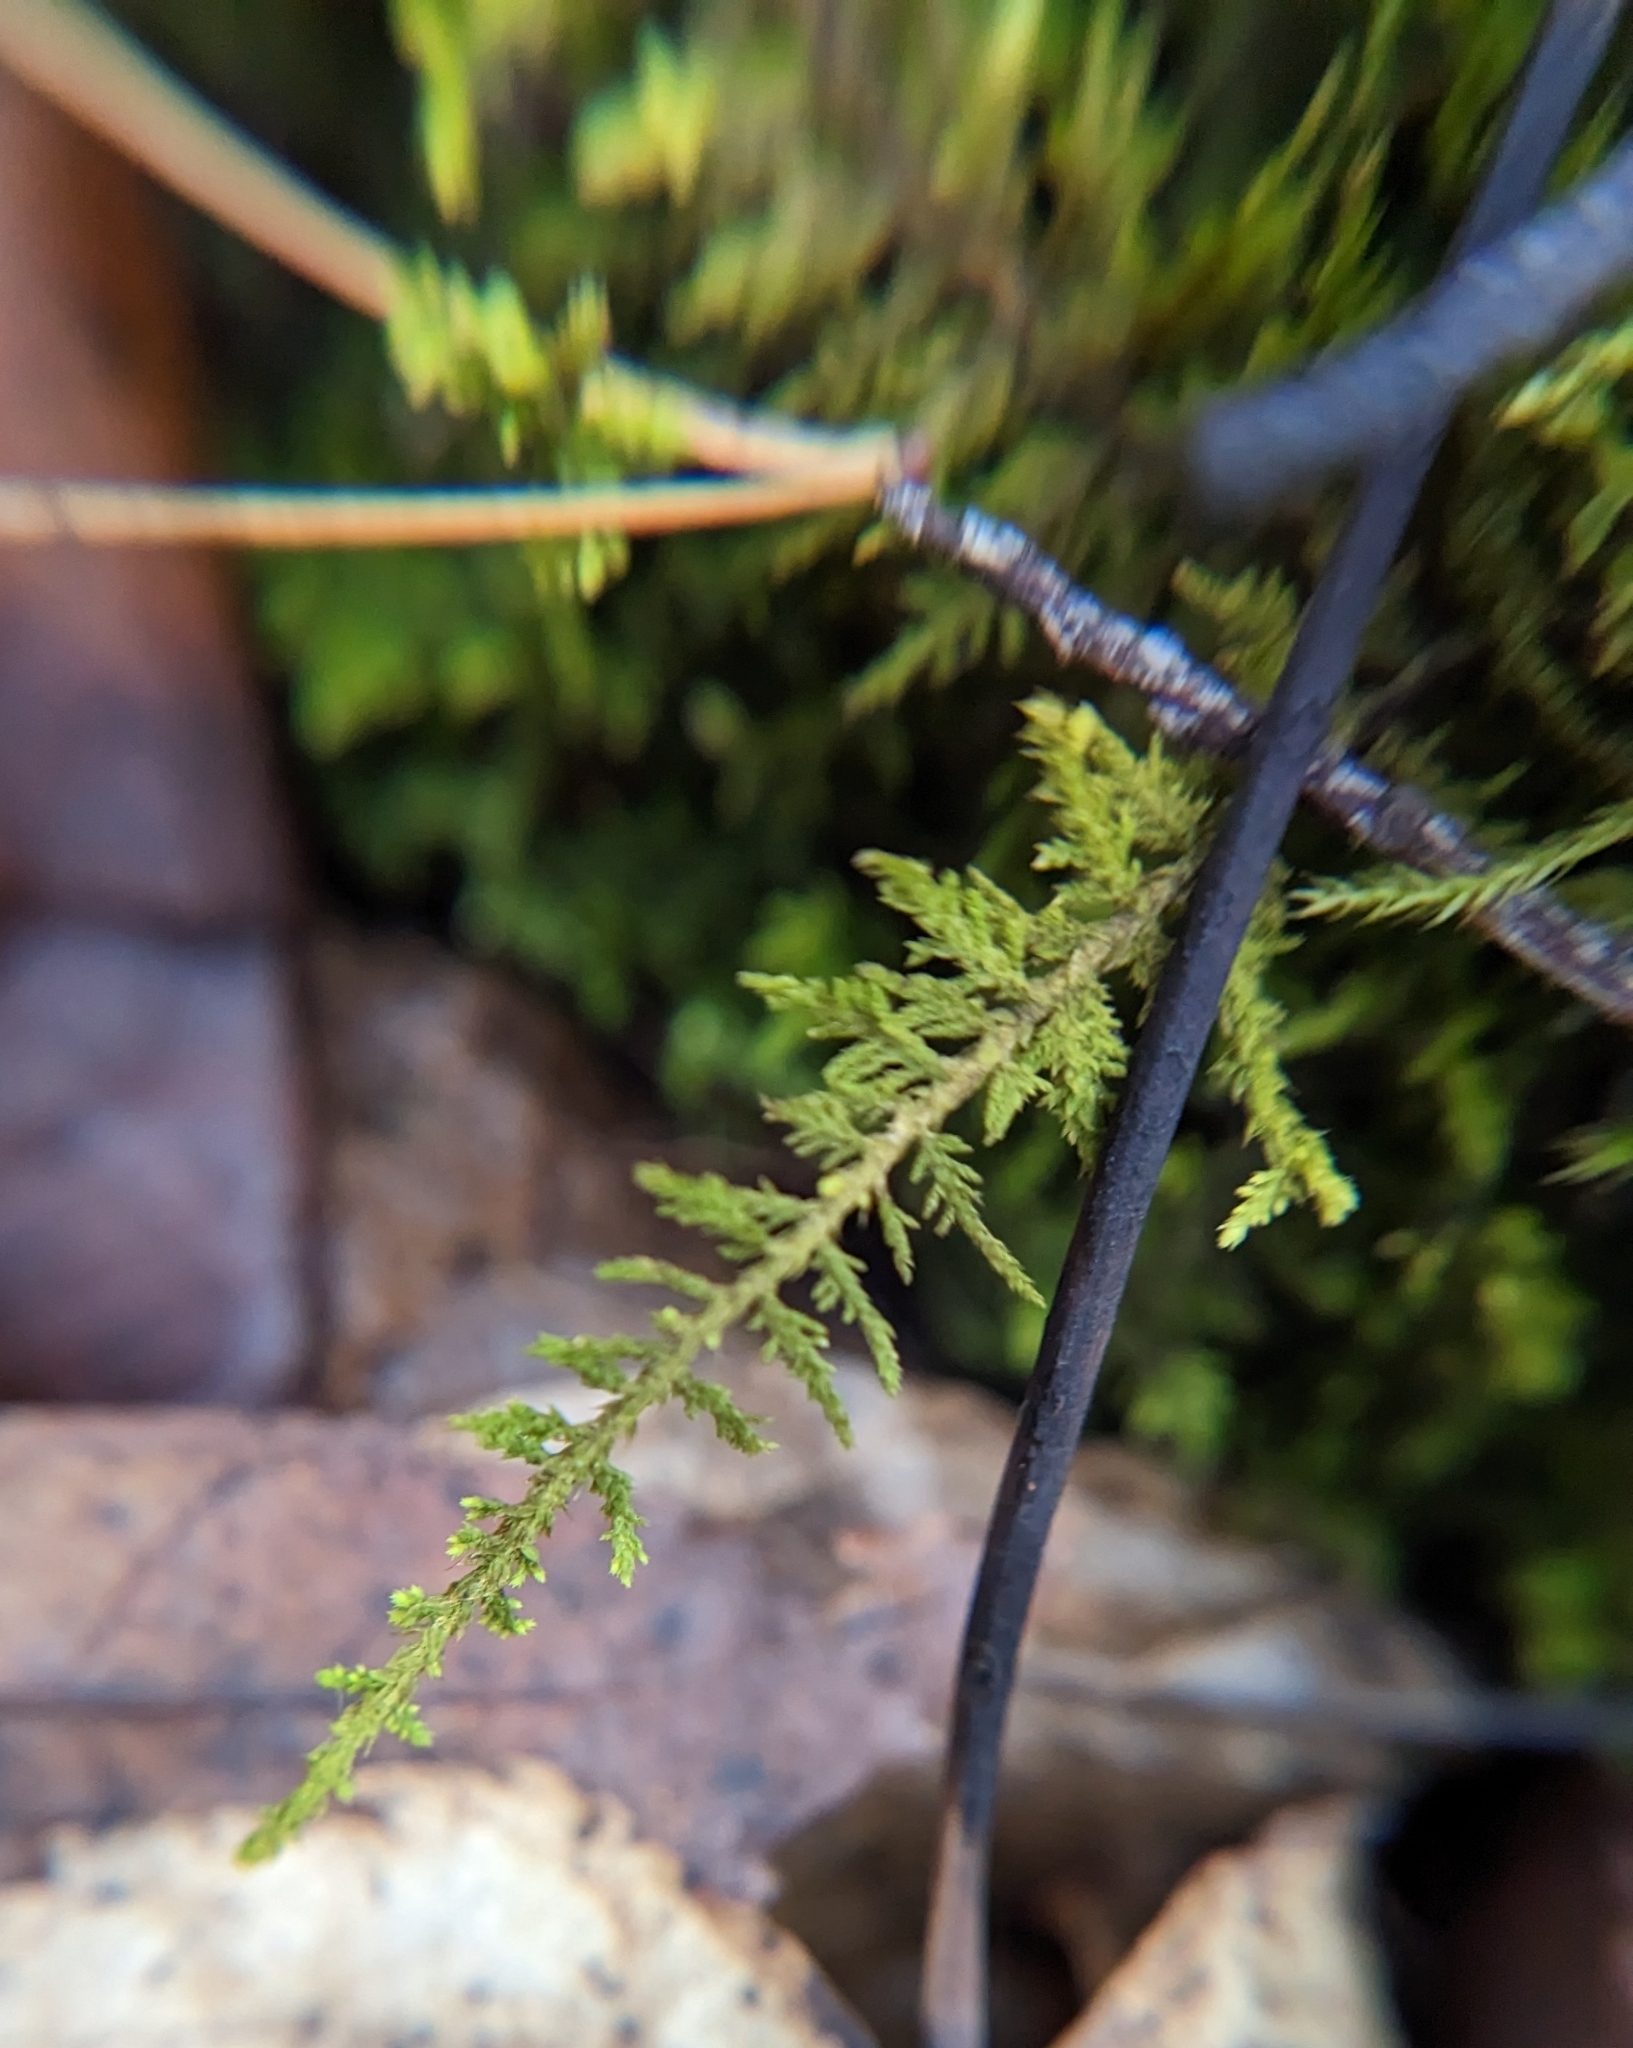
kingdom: Plantae
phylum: Bryophyta
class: Bryopsida
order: Hypnales
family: Thuidiaceae
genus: Thuidium
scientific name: Thuidium delicatulum
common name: Delicate fern moss
